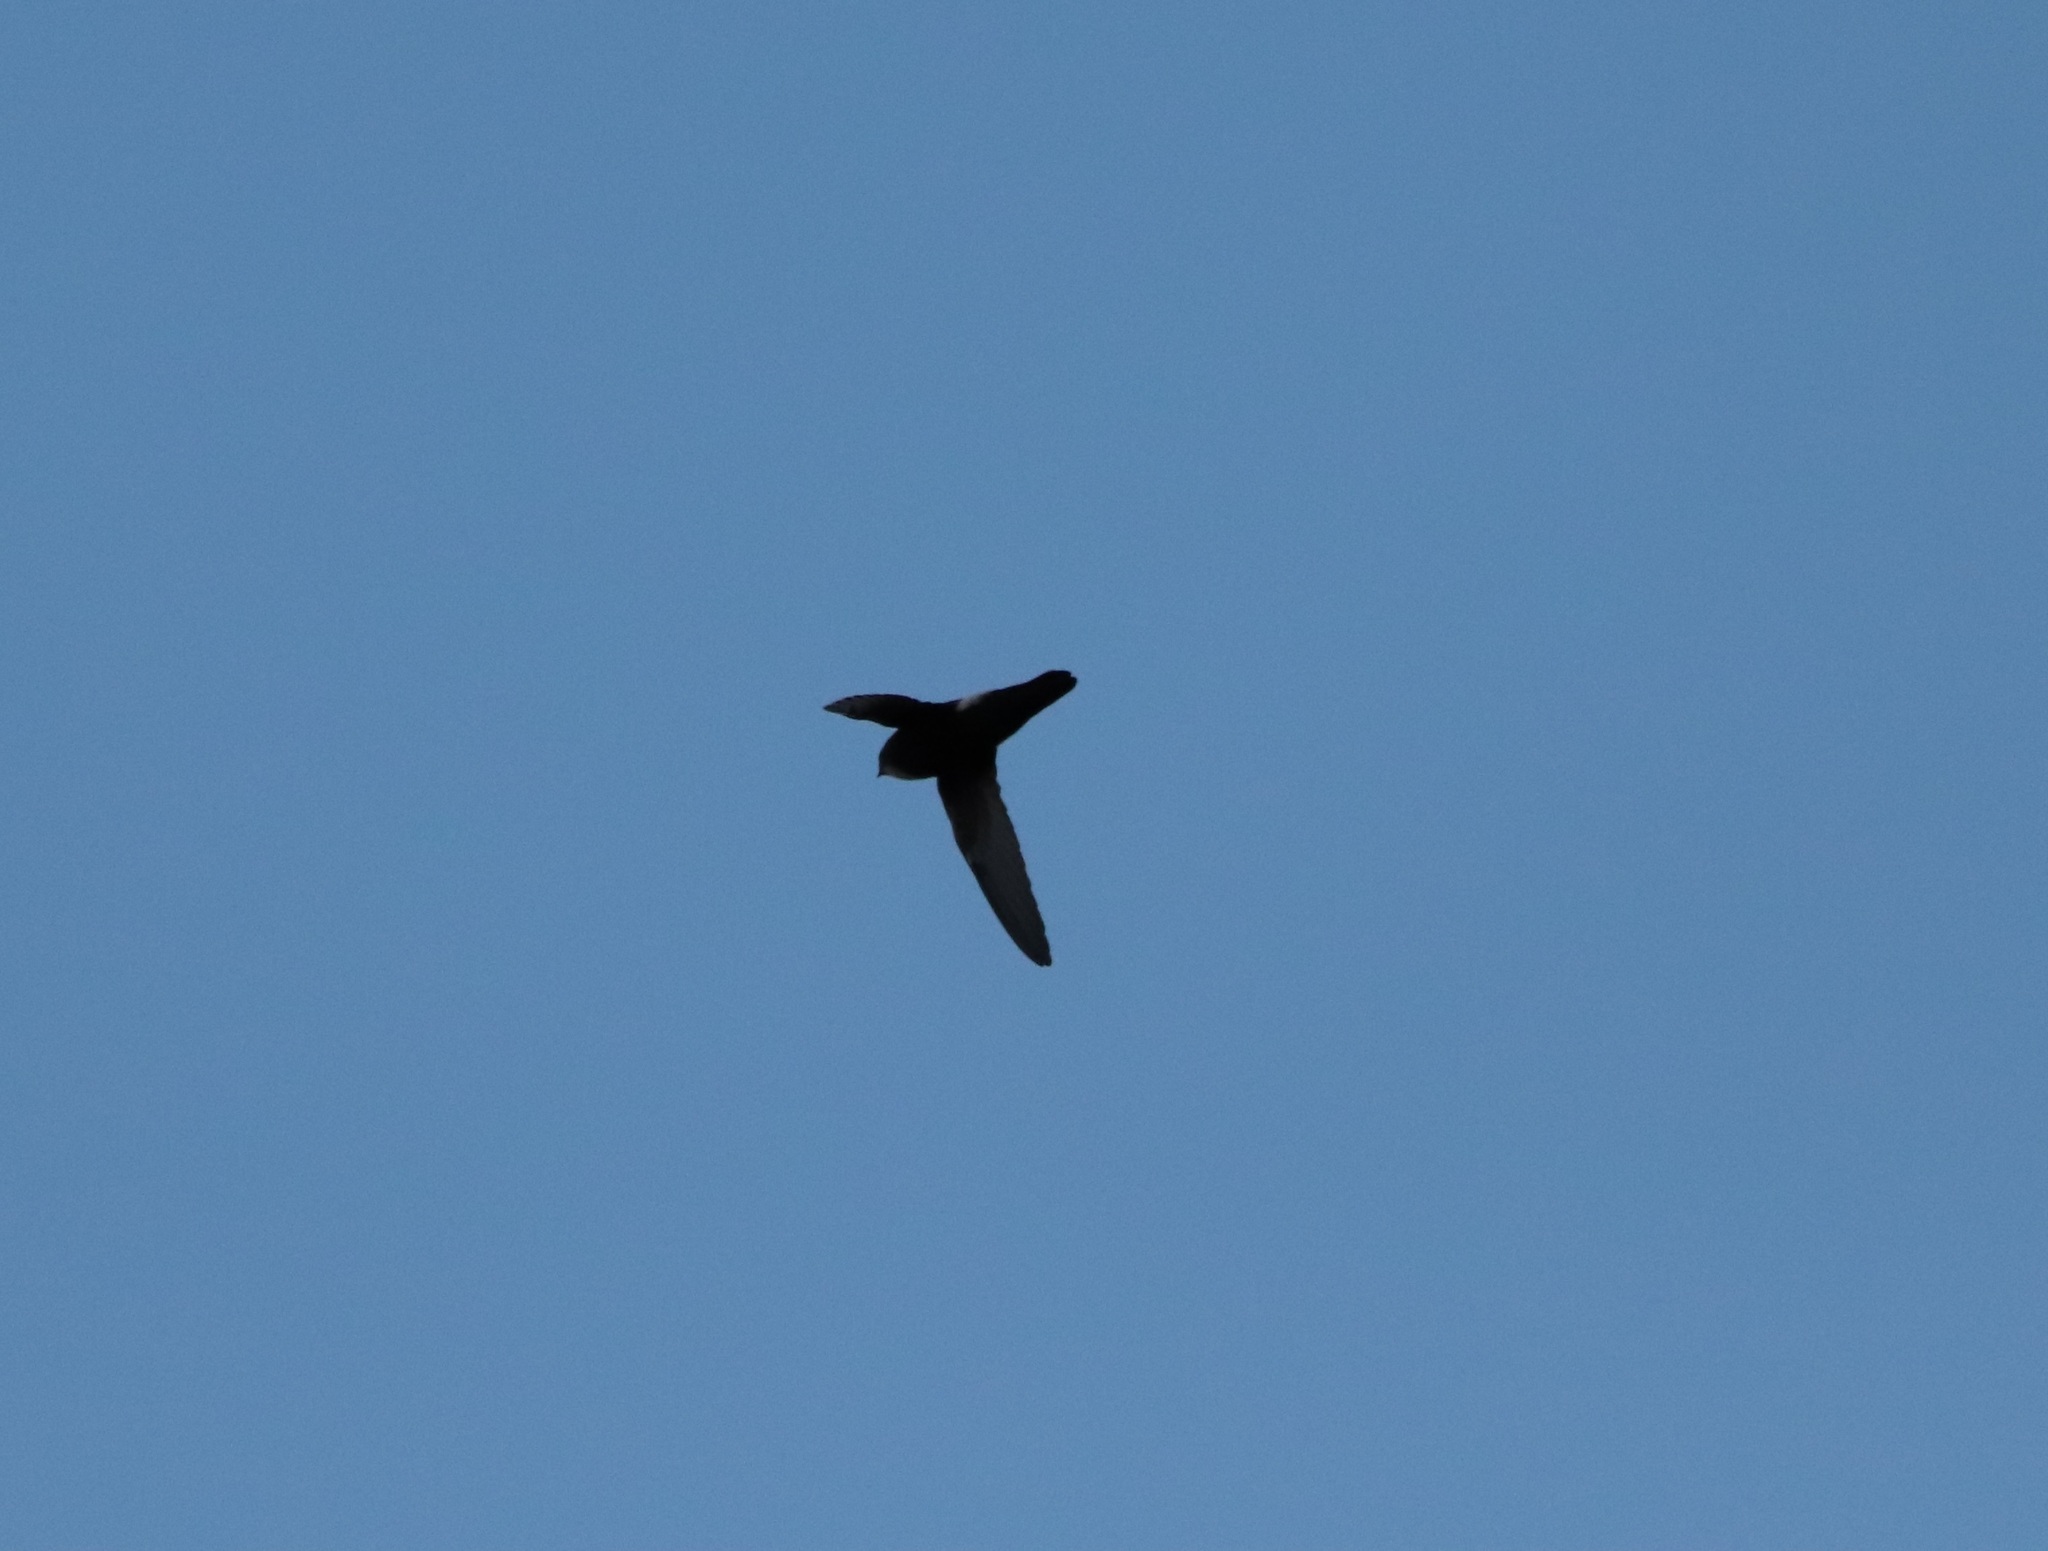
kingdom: Animalia
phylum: Chordata
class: Aves
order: Apodiformes
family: Apodidae
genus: Apus
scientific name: Apus nipalensis
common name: House swift
